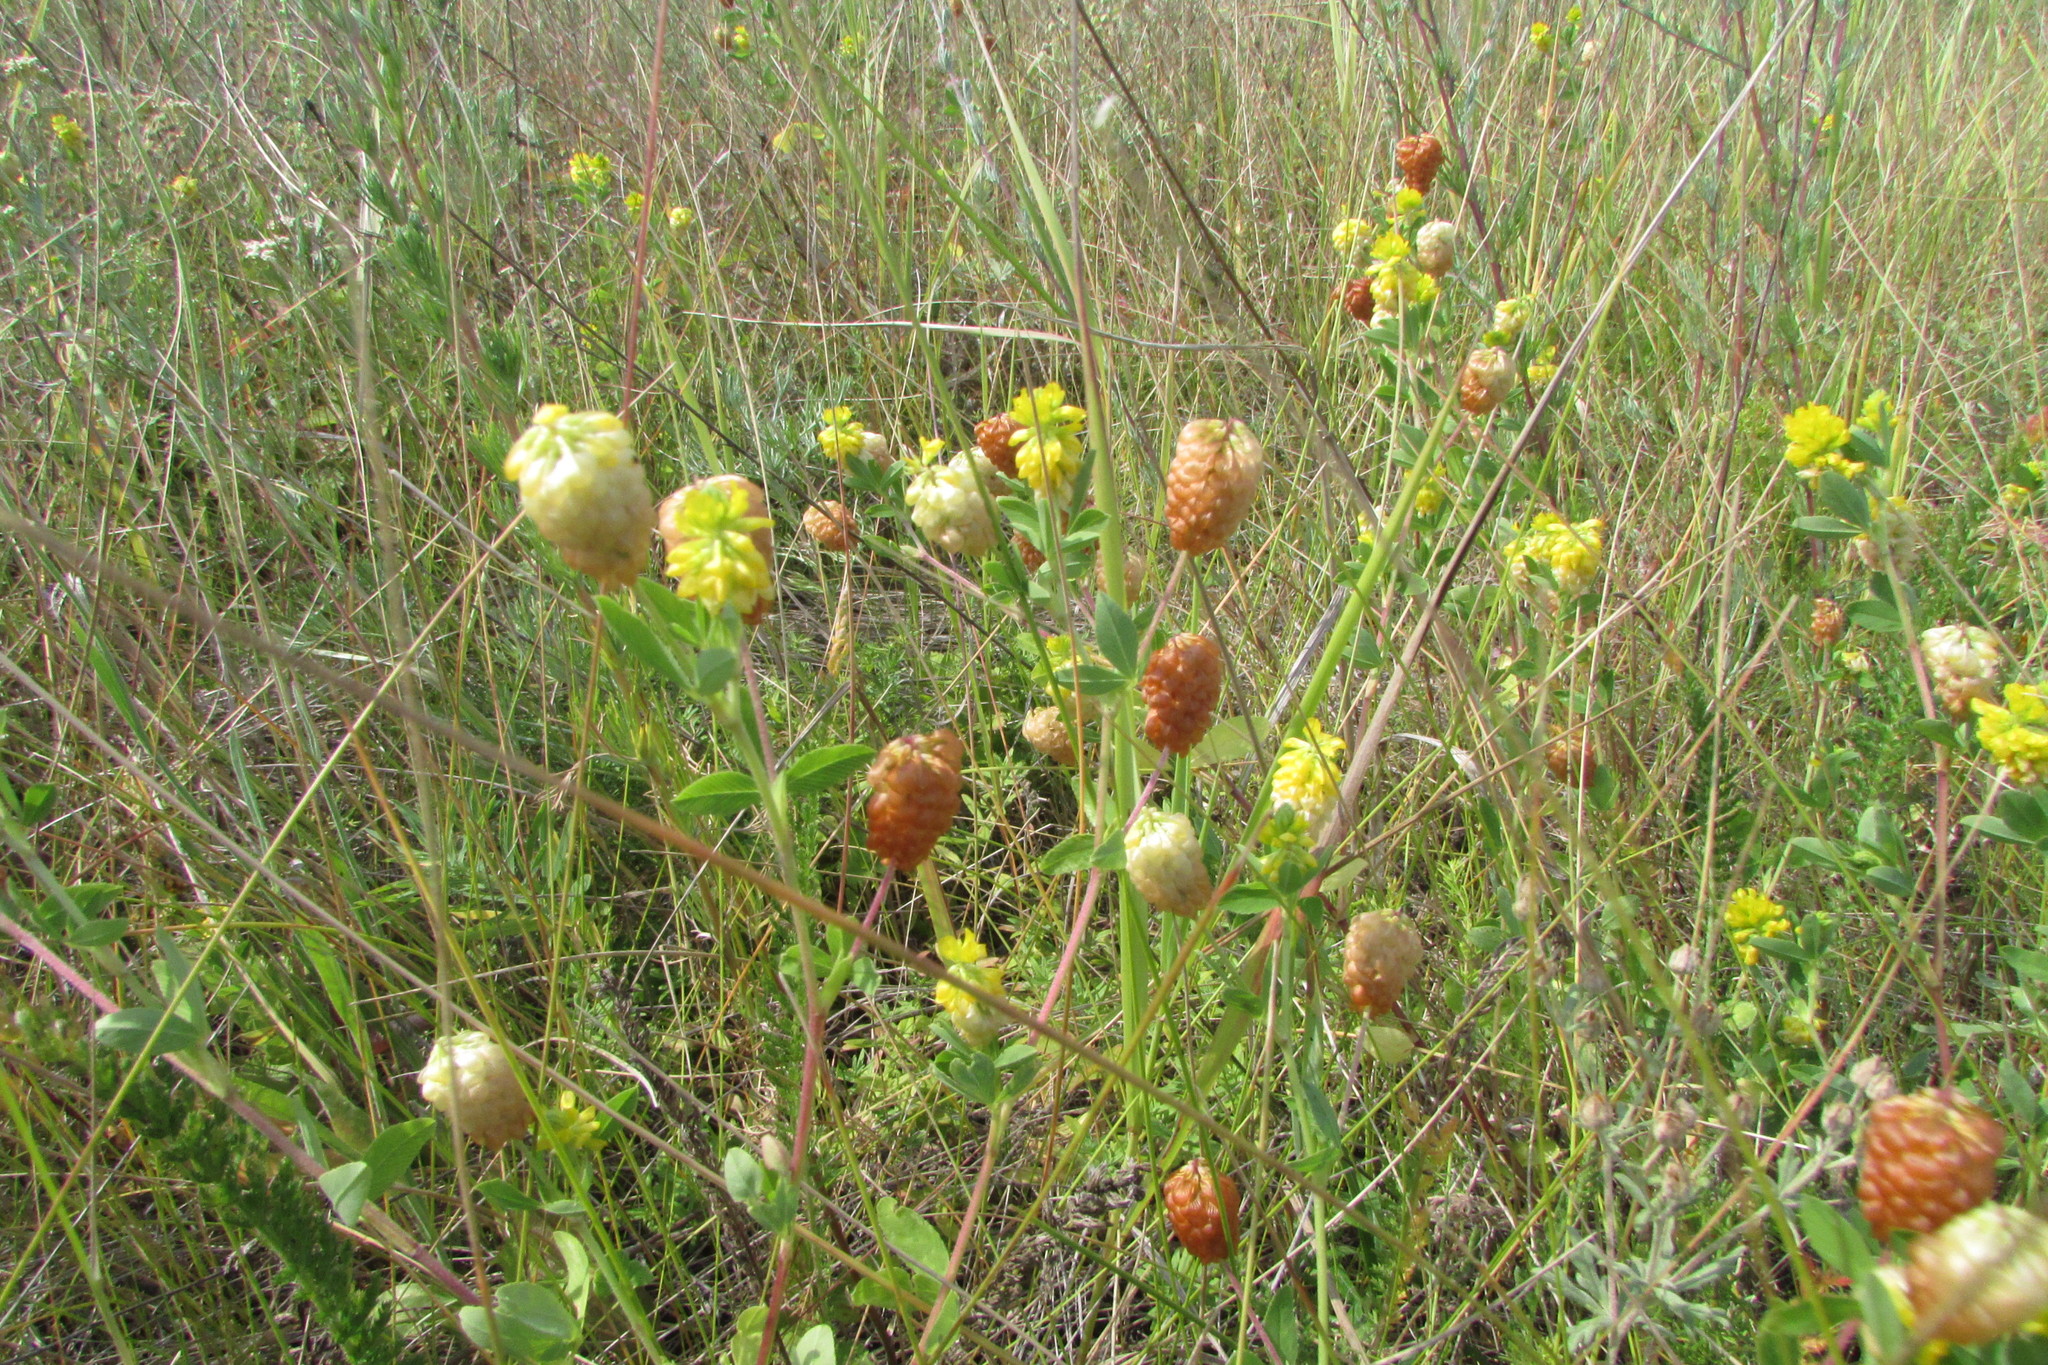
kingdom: Plantae
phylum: Tracheophyta
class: Magnoliopsida
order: Fabales
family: Fabaceae
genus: Trifolium
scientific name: Trifolium aureum
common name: Golden clover
